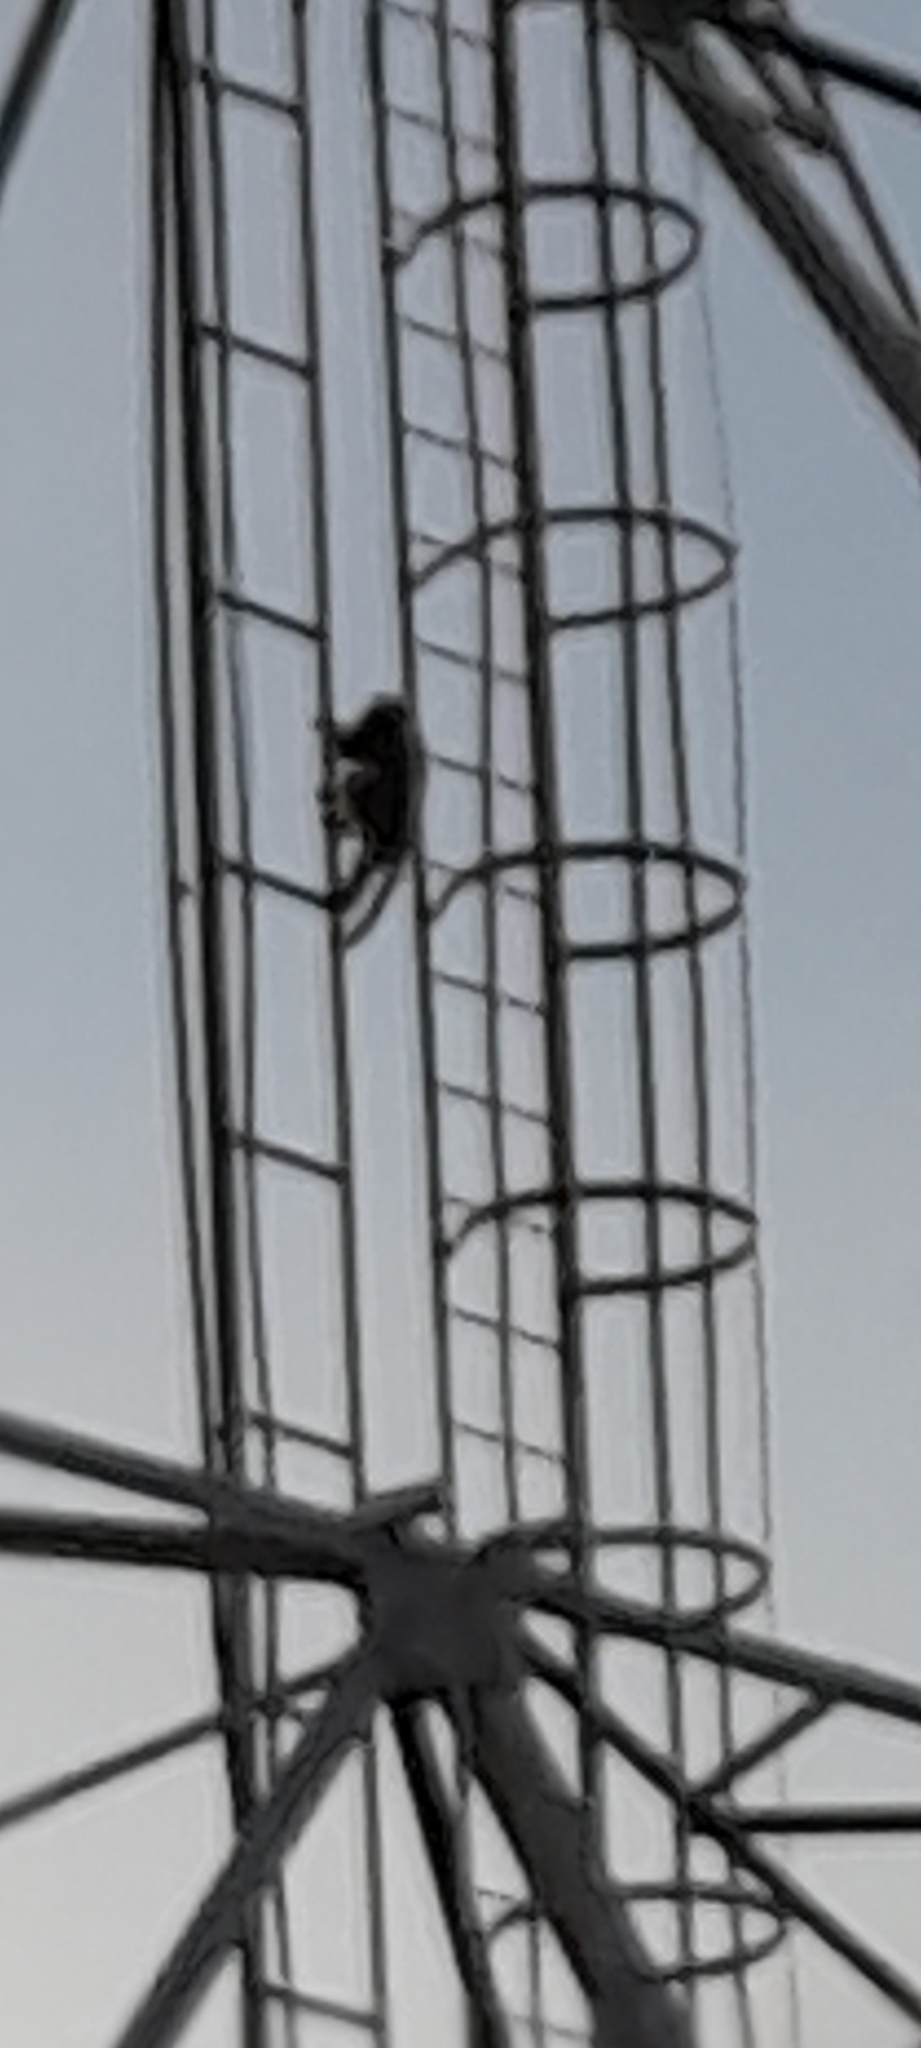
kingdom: Animalia
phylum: Chordata
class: Mammalia
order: Primates
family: Cercopithecidae
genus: Macaca
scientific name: Macaca radiata
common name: Bonnet macaque
